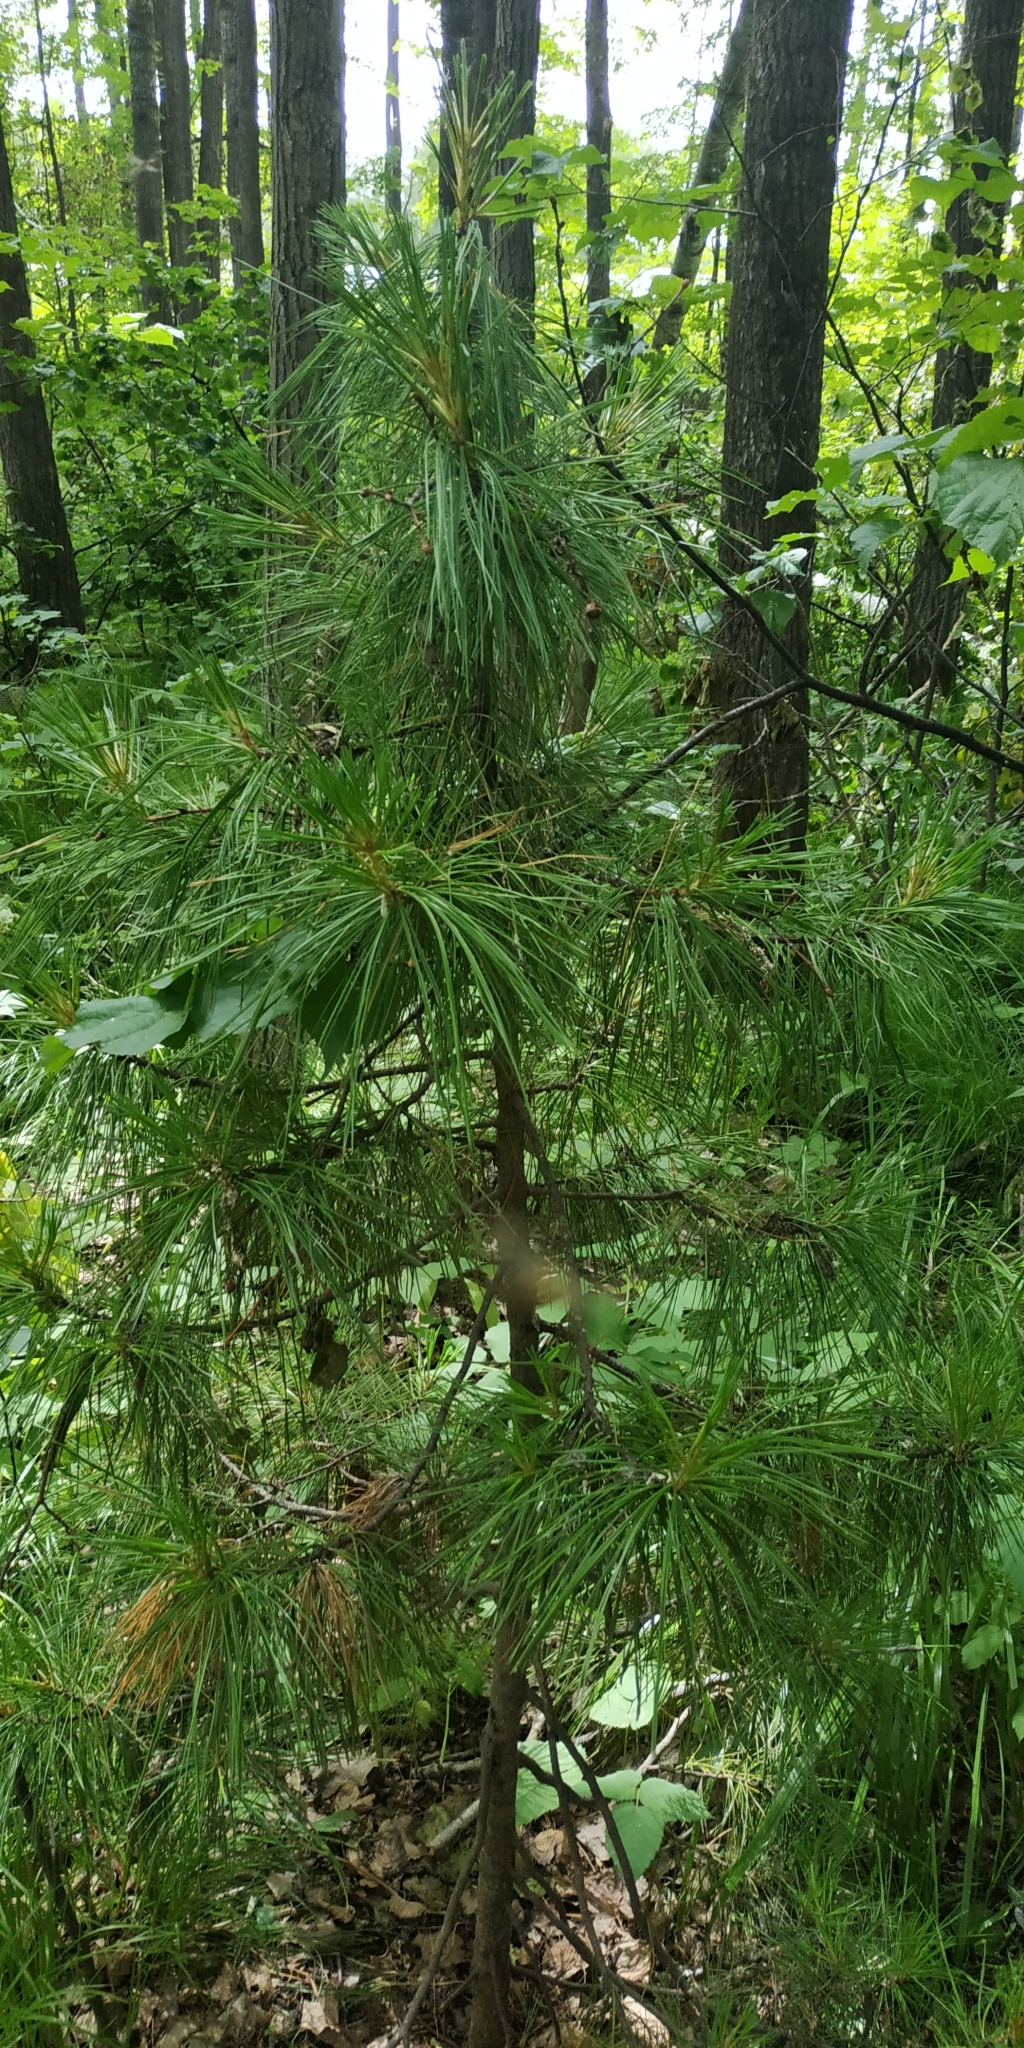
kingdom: Plantae
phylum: Tracheophyta
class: Pinopsida
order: Pinales
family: Pinaceae
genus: Pinus
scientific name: Pinus sibirica
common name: Siberian pine
